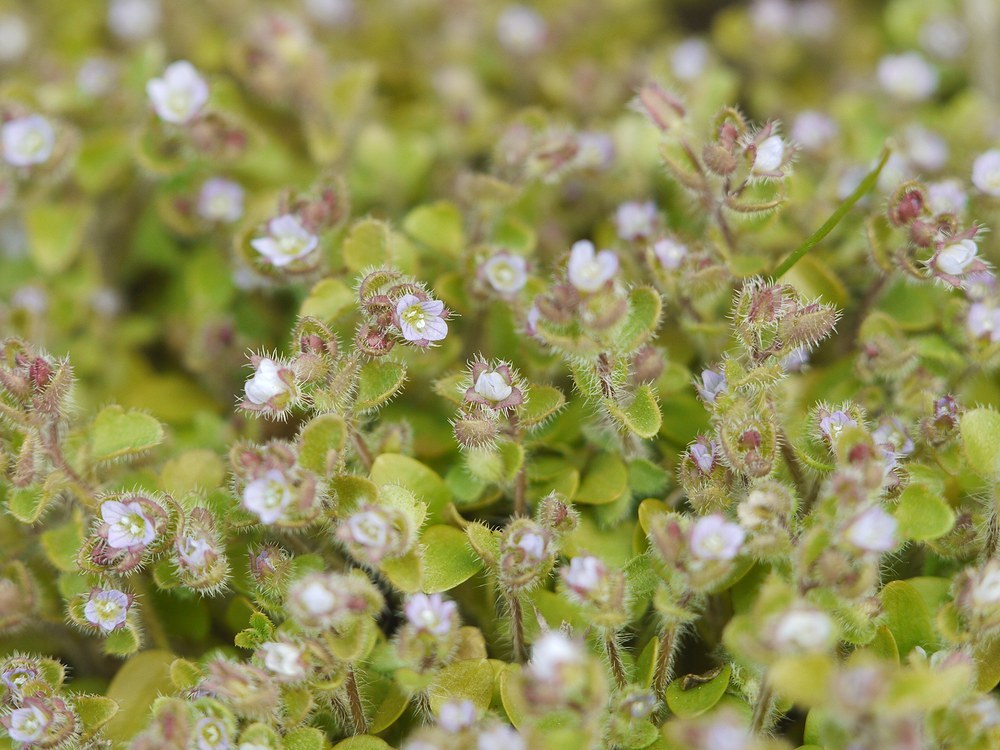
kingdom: Plantae
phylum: Tracheophyta
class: Magnoliopsida
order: Lamiales
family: Plantaginaceae
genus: Veronica
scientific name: Veronica sublobata
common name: False ivy-leaved speedwell
